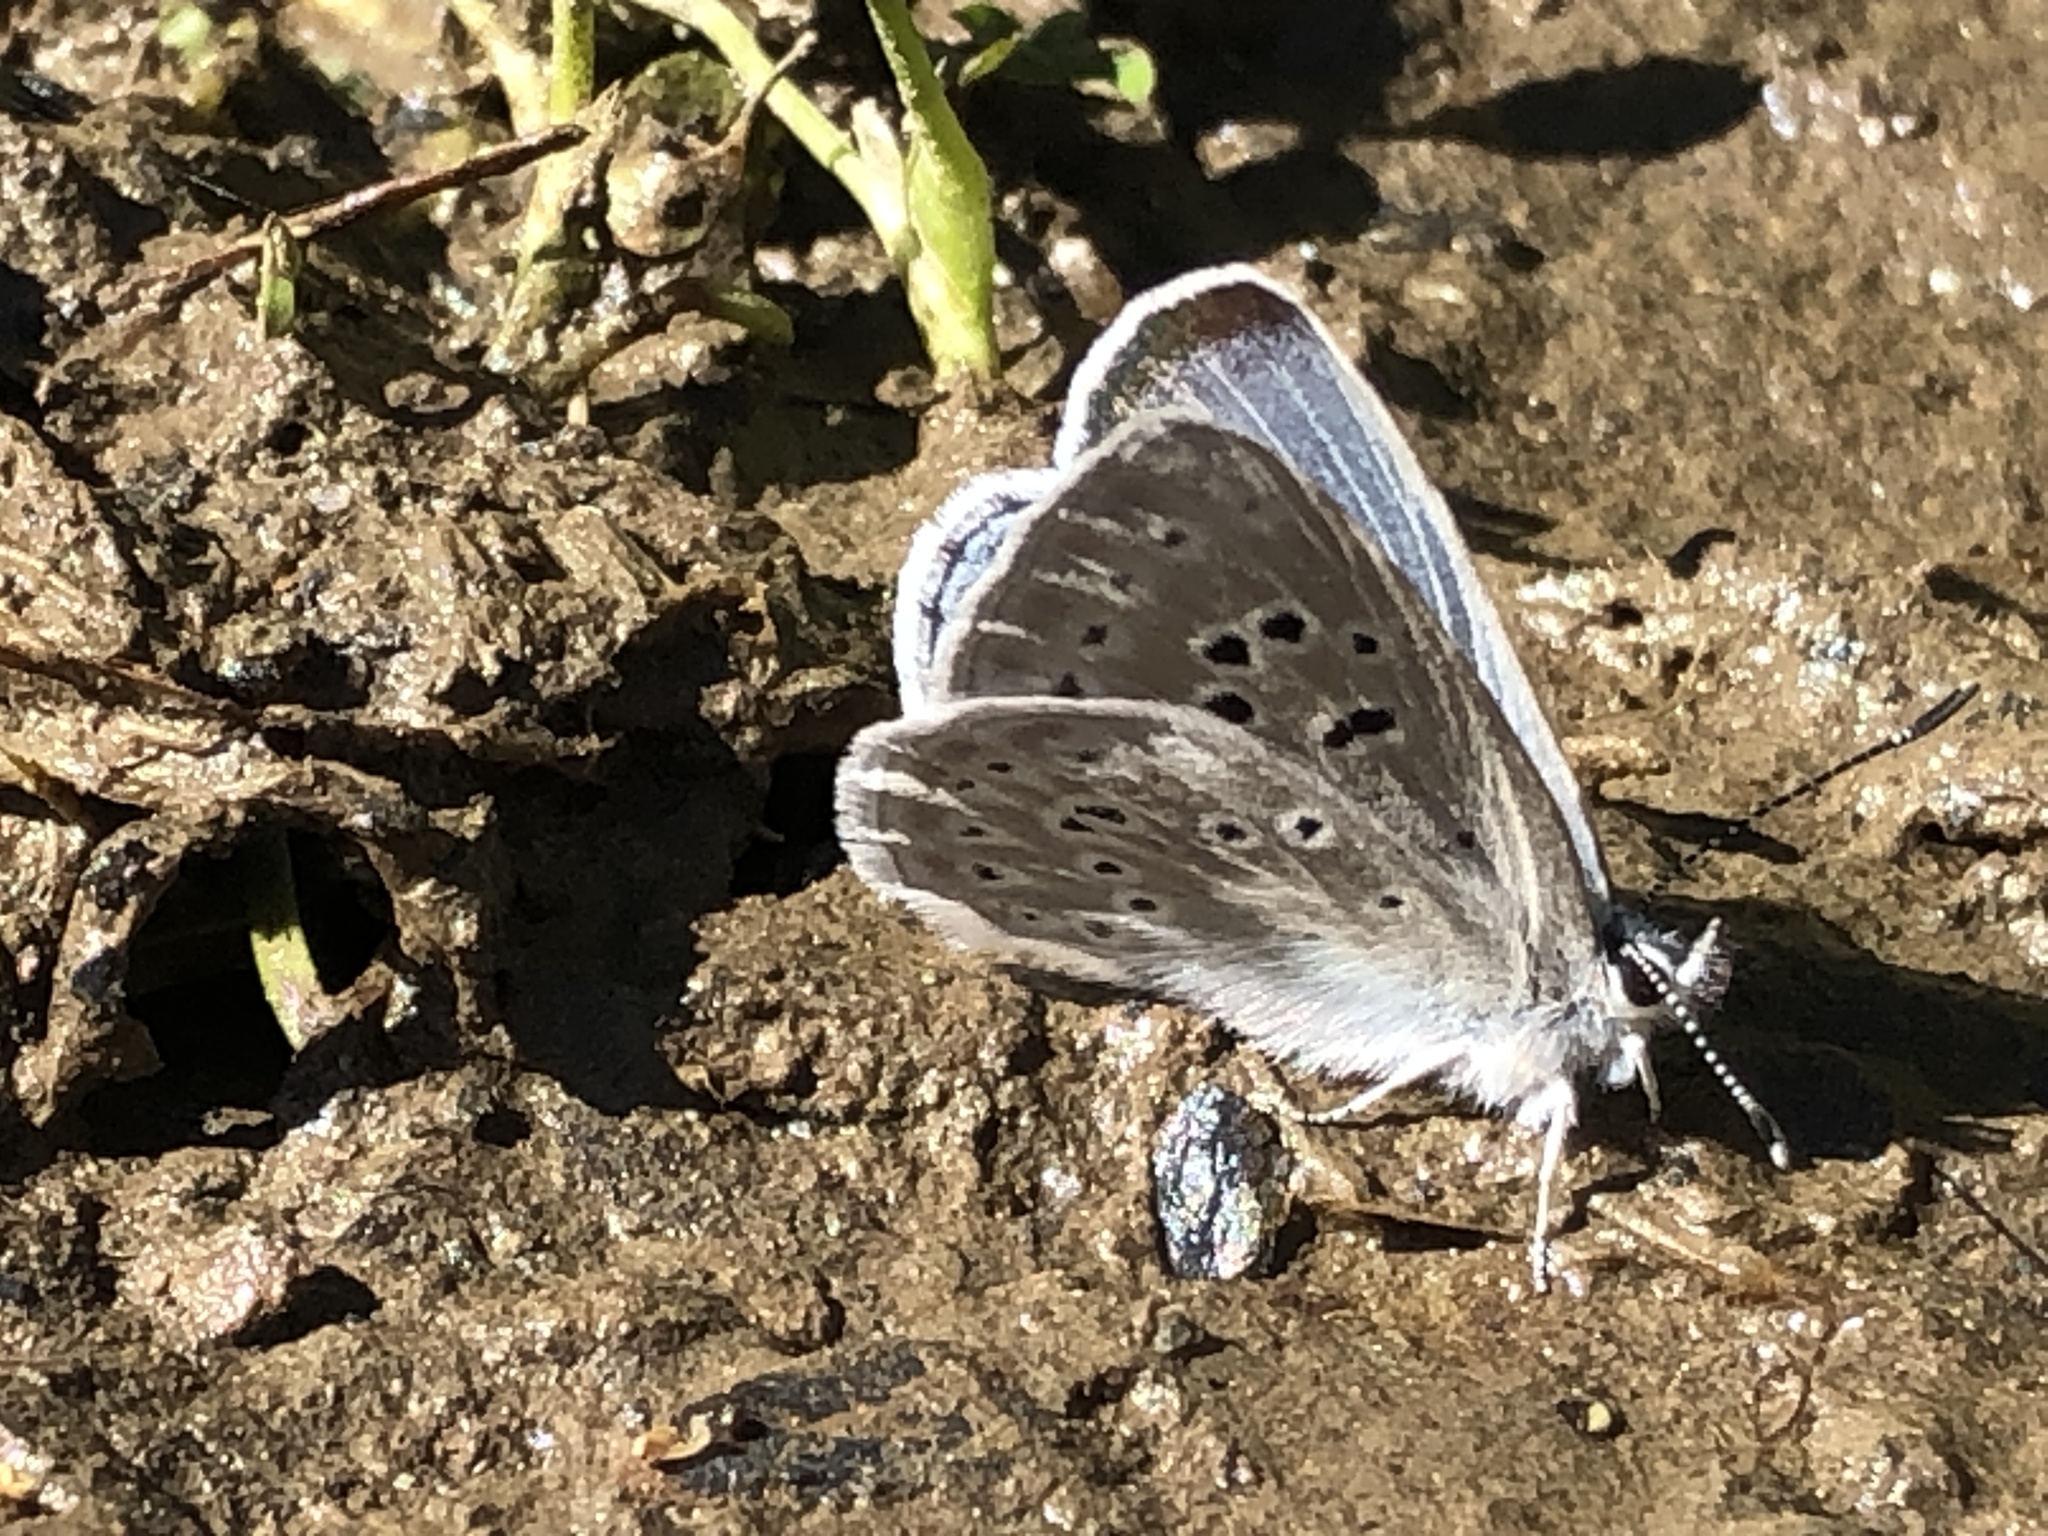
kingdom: Animalia
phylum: Arthropoda
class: Insecta
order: Lepidoptera
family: Lycaenidae
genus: Icaricia
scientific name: Icaricia icarioides
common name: Boisduval's blue
